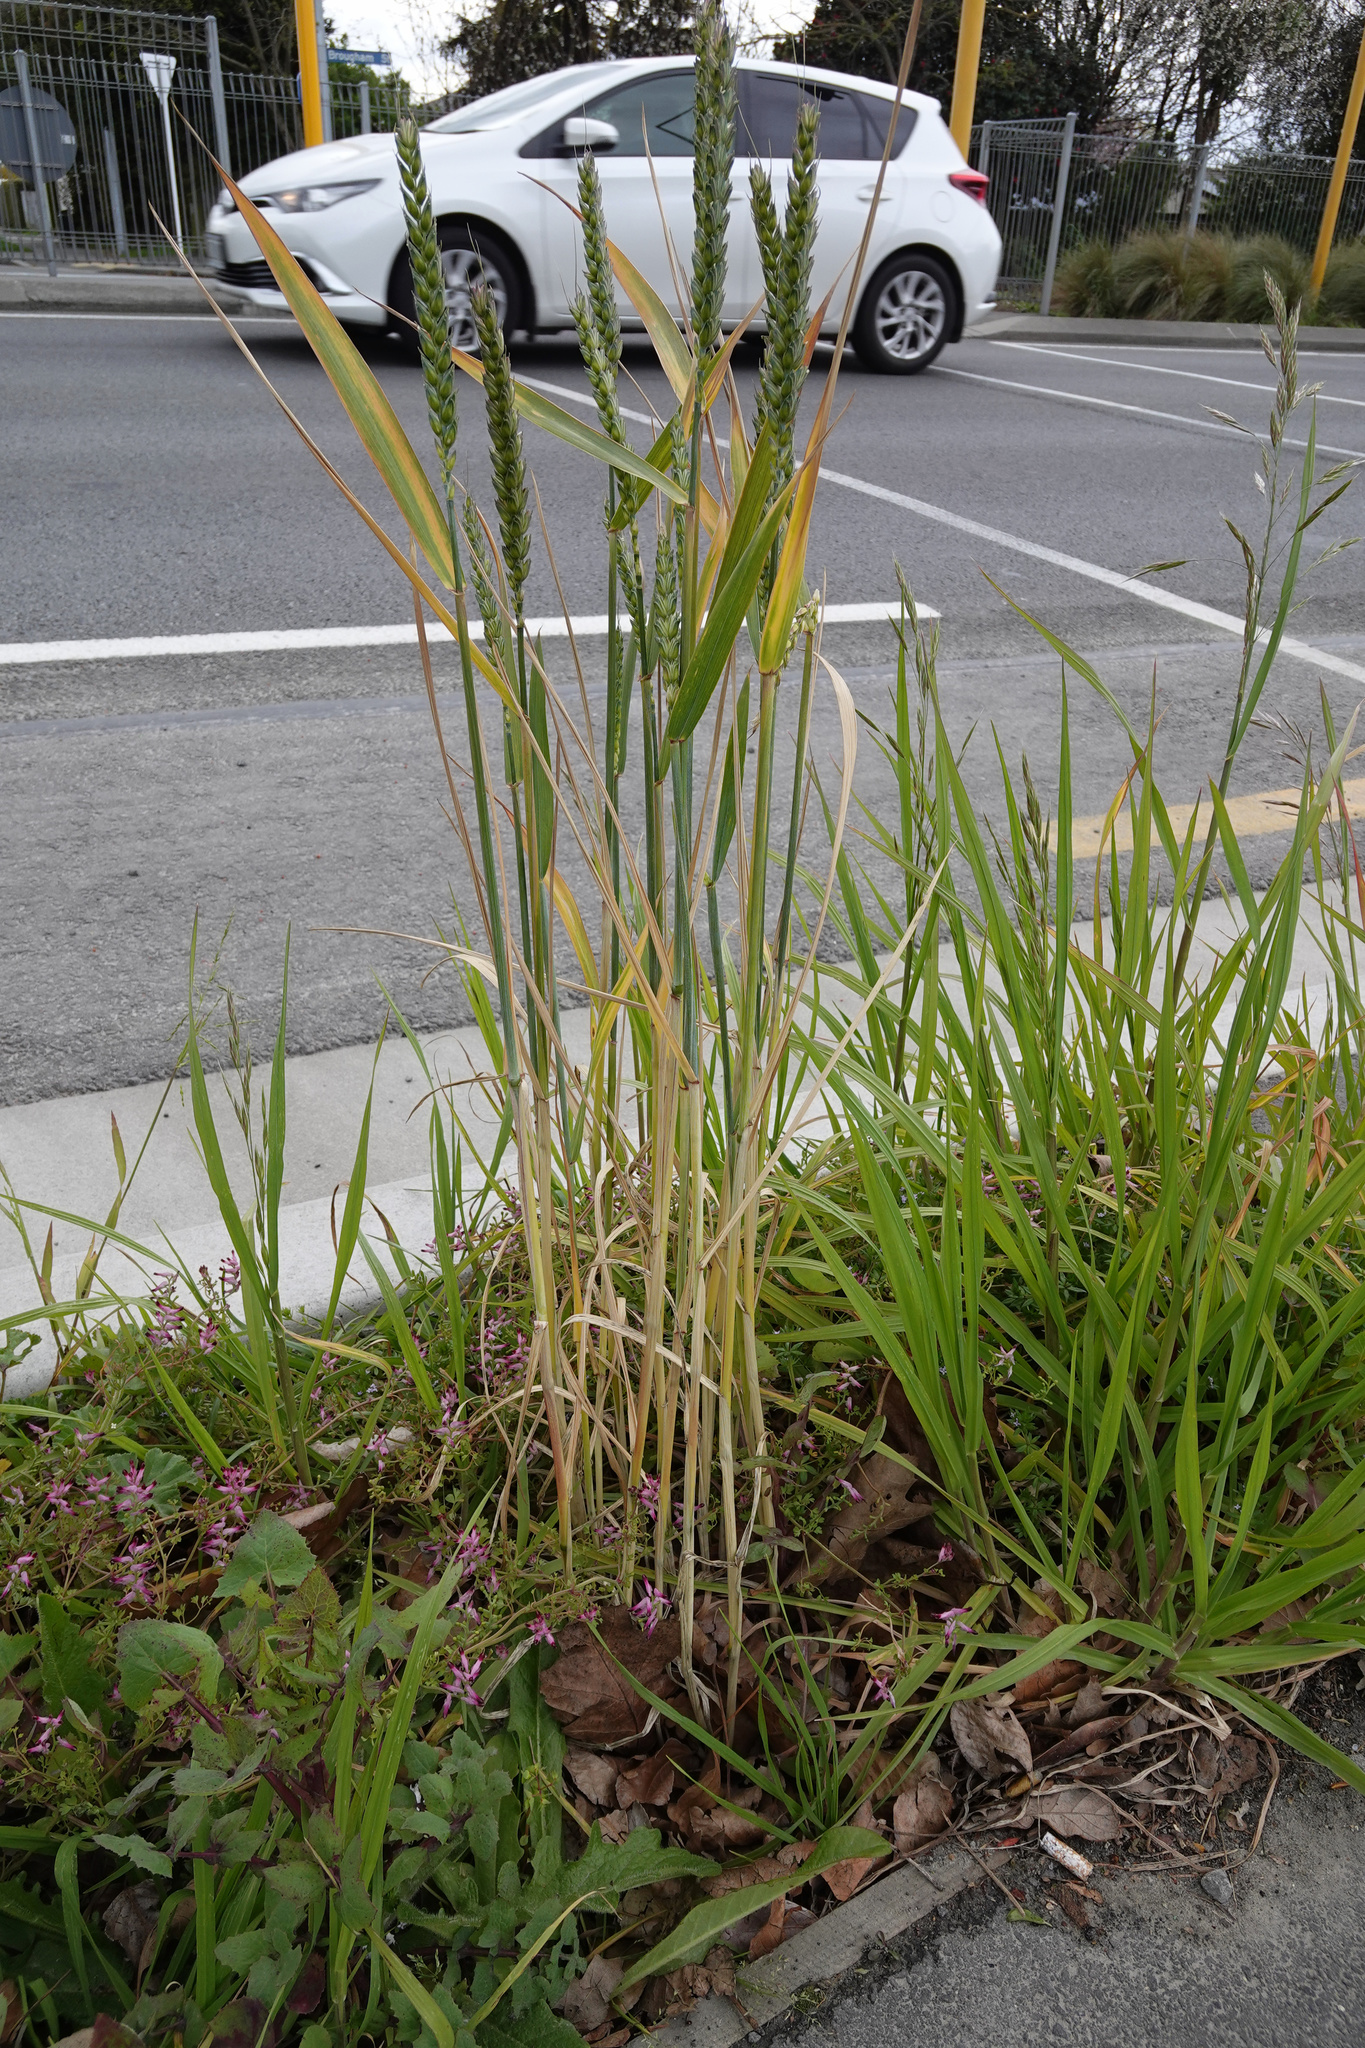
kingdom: Plantae
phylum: Tracheophyta
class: Liliopsida
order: Poales
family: Poaceae
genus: Triticum
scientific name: Triticum aestivum
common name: Common wheat
